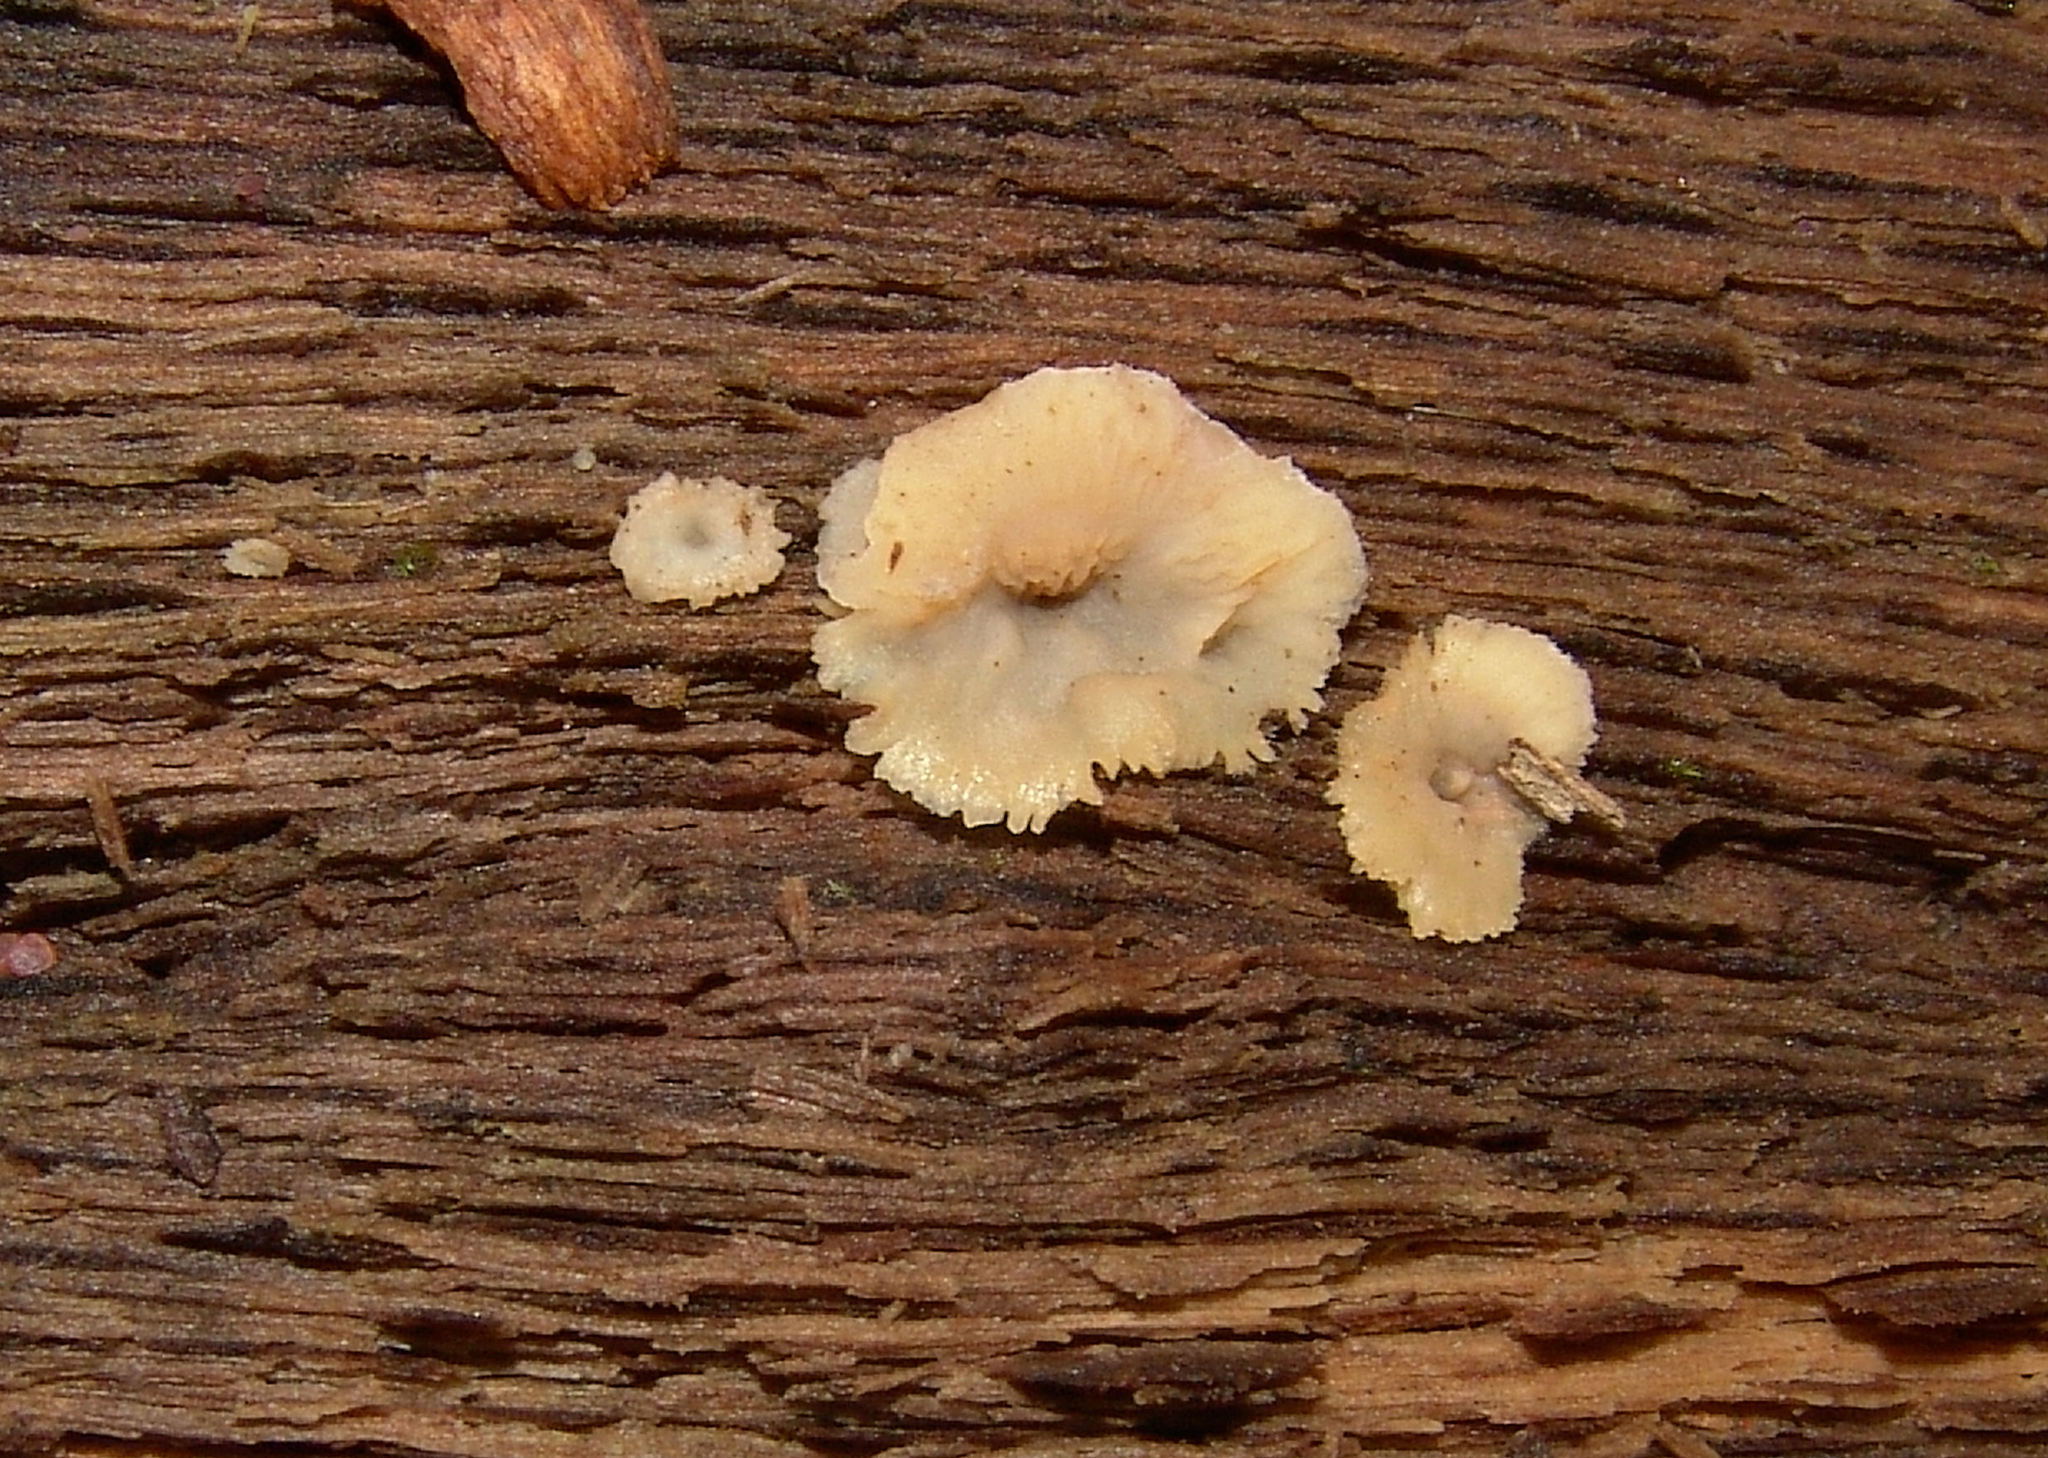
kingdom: Fungi
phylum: Basidiomycota
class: Agaricomycetes
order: Polyporales
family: Meruliaceae
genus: Phlebia
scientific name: Phlebia tremellosa
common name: Jelly rot
